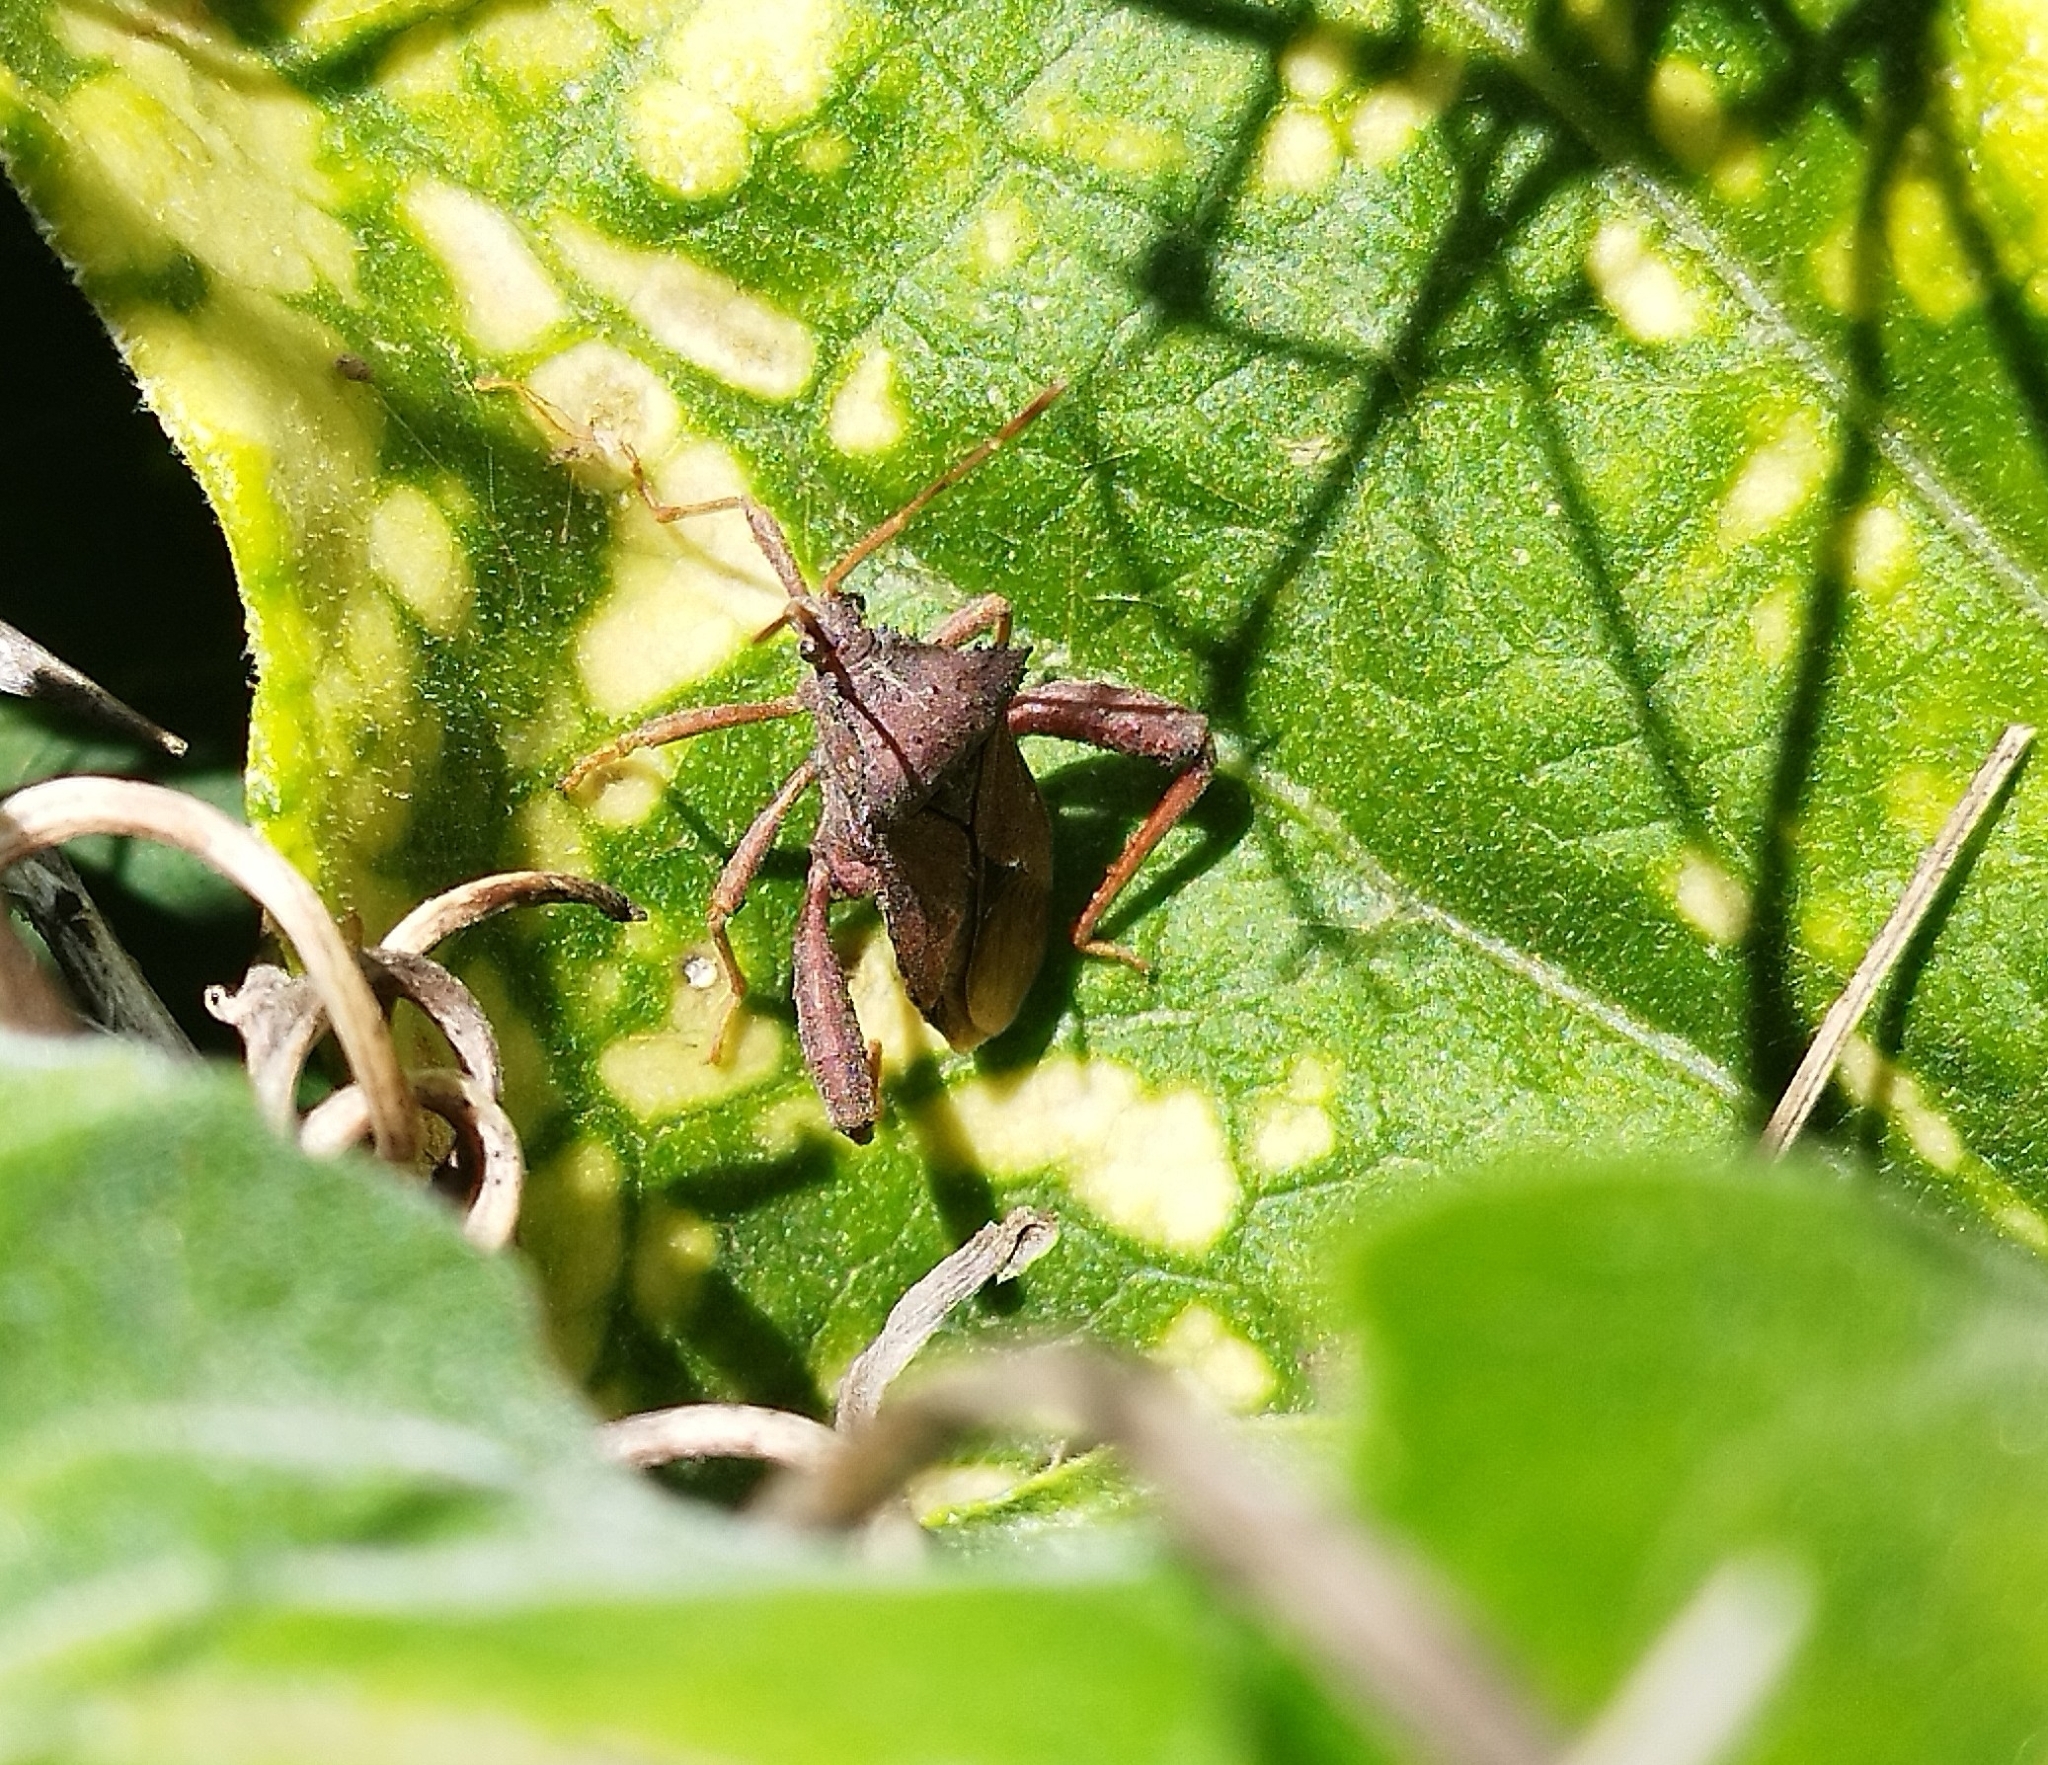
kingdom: Animalia
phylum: Arthropoda
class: Insecta
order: Hemiptera
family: Coreidae
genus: Camptischium
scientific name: Camptischium clavipes
